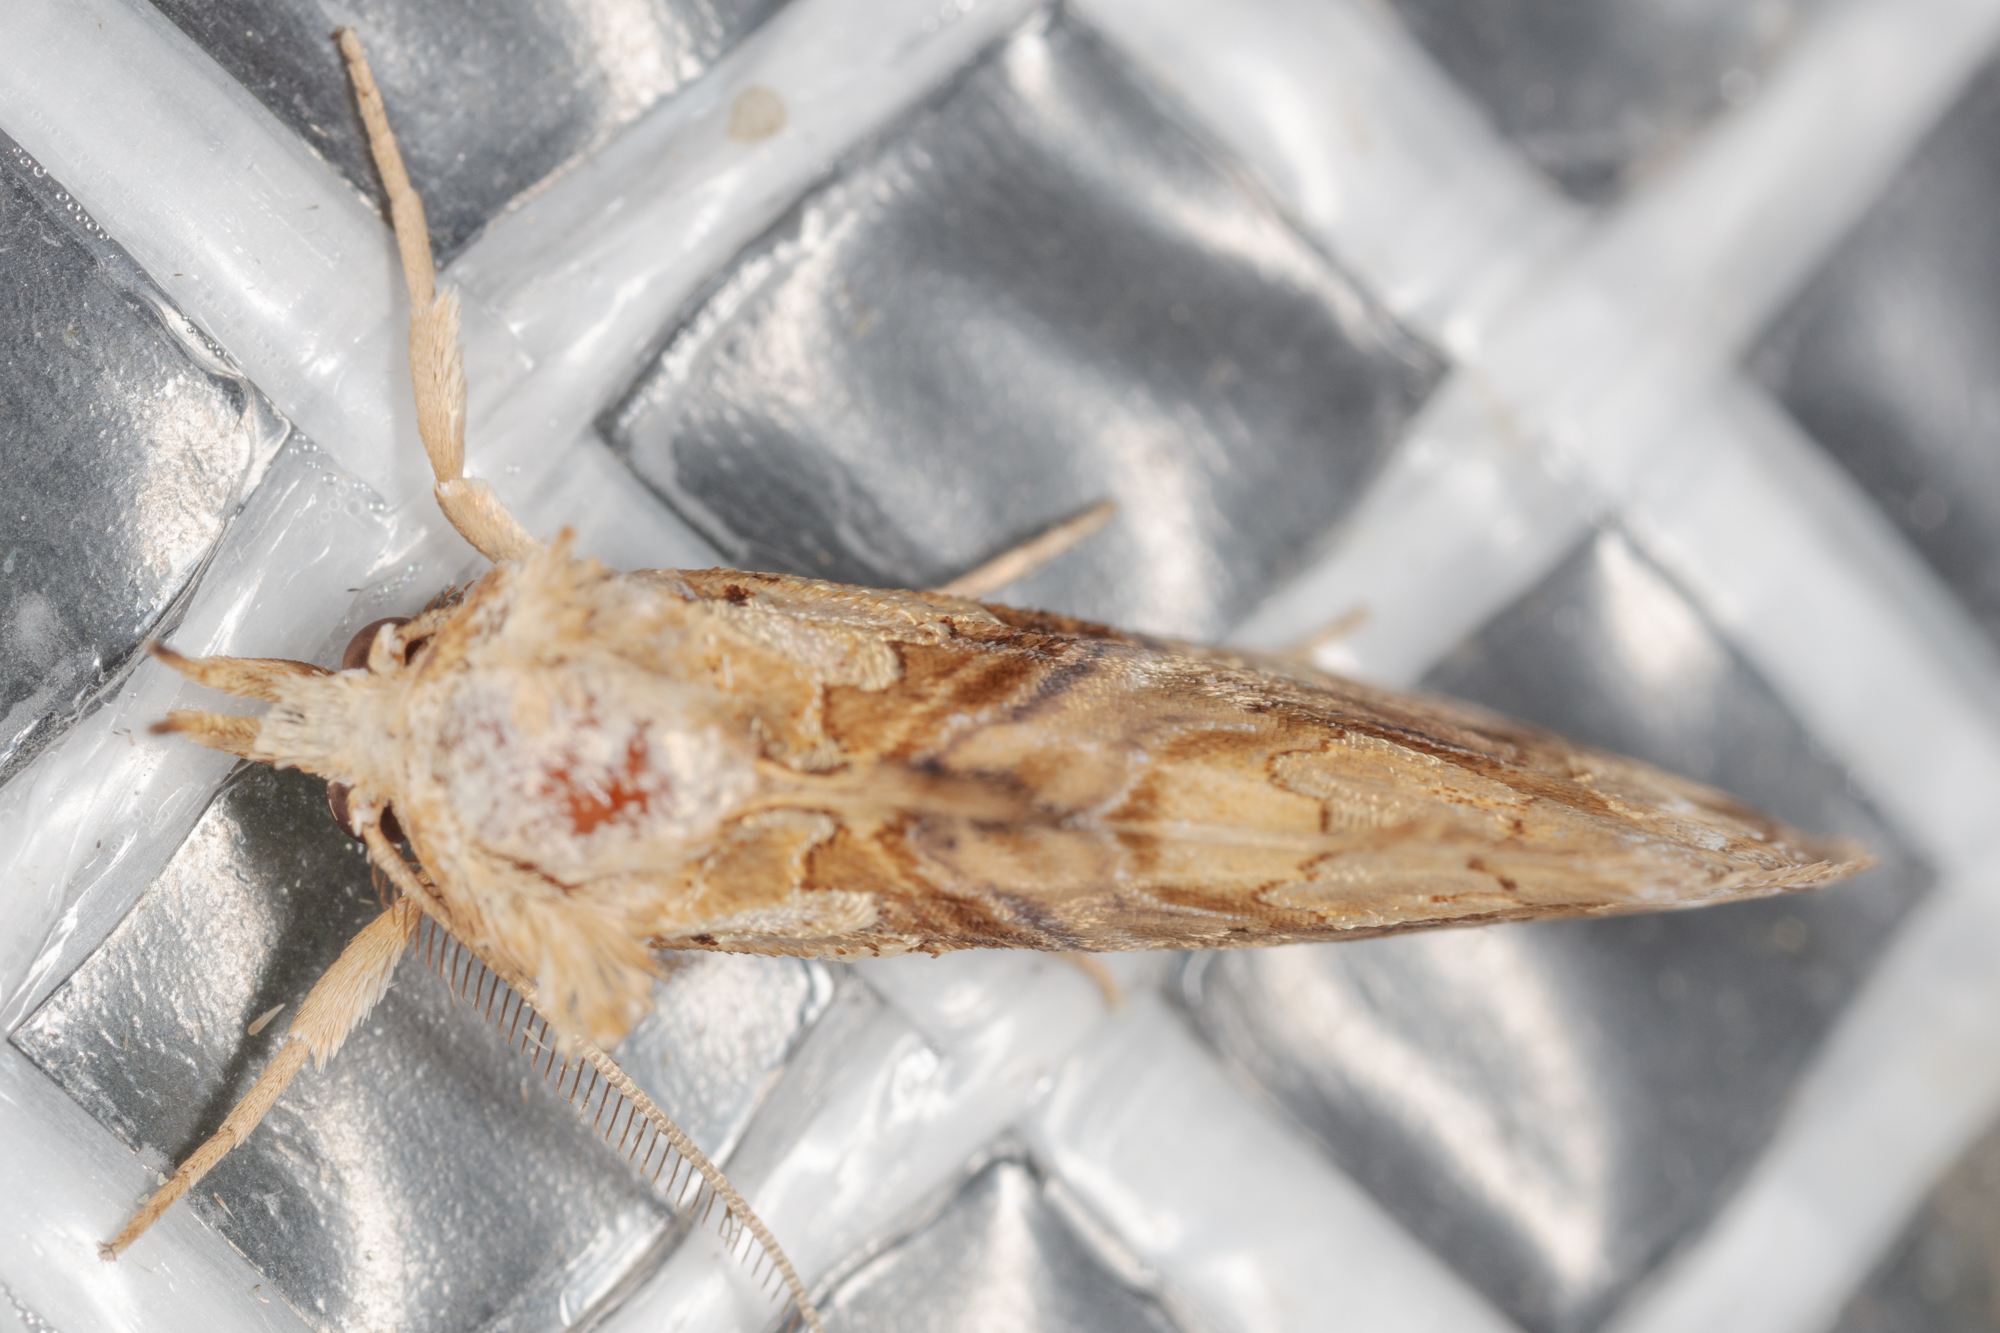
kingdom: Animalia
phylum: Arthropoda
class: Insecta
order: Lepidoptera
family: Erebidae
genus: Plusiodonta
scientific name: Plusiodonta compressipalpis
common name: Moonseed moth
